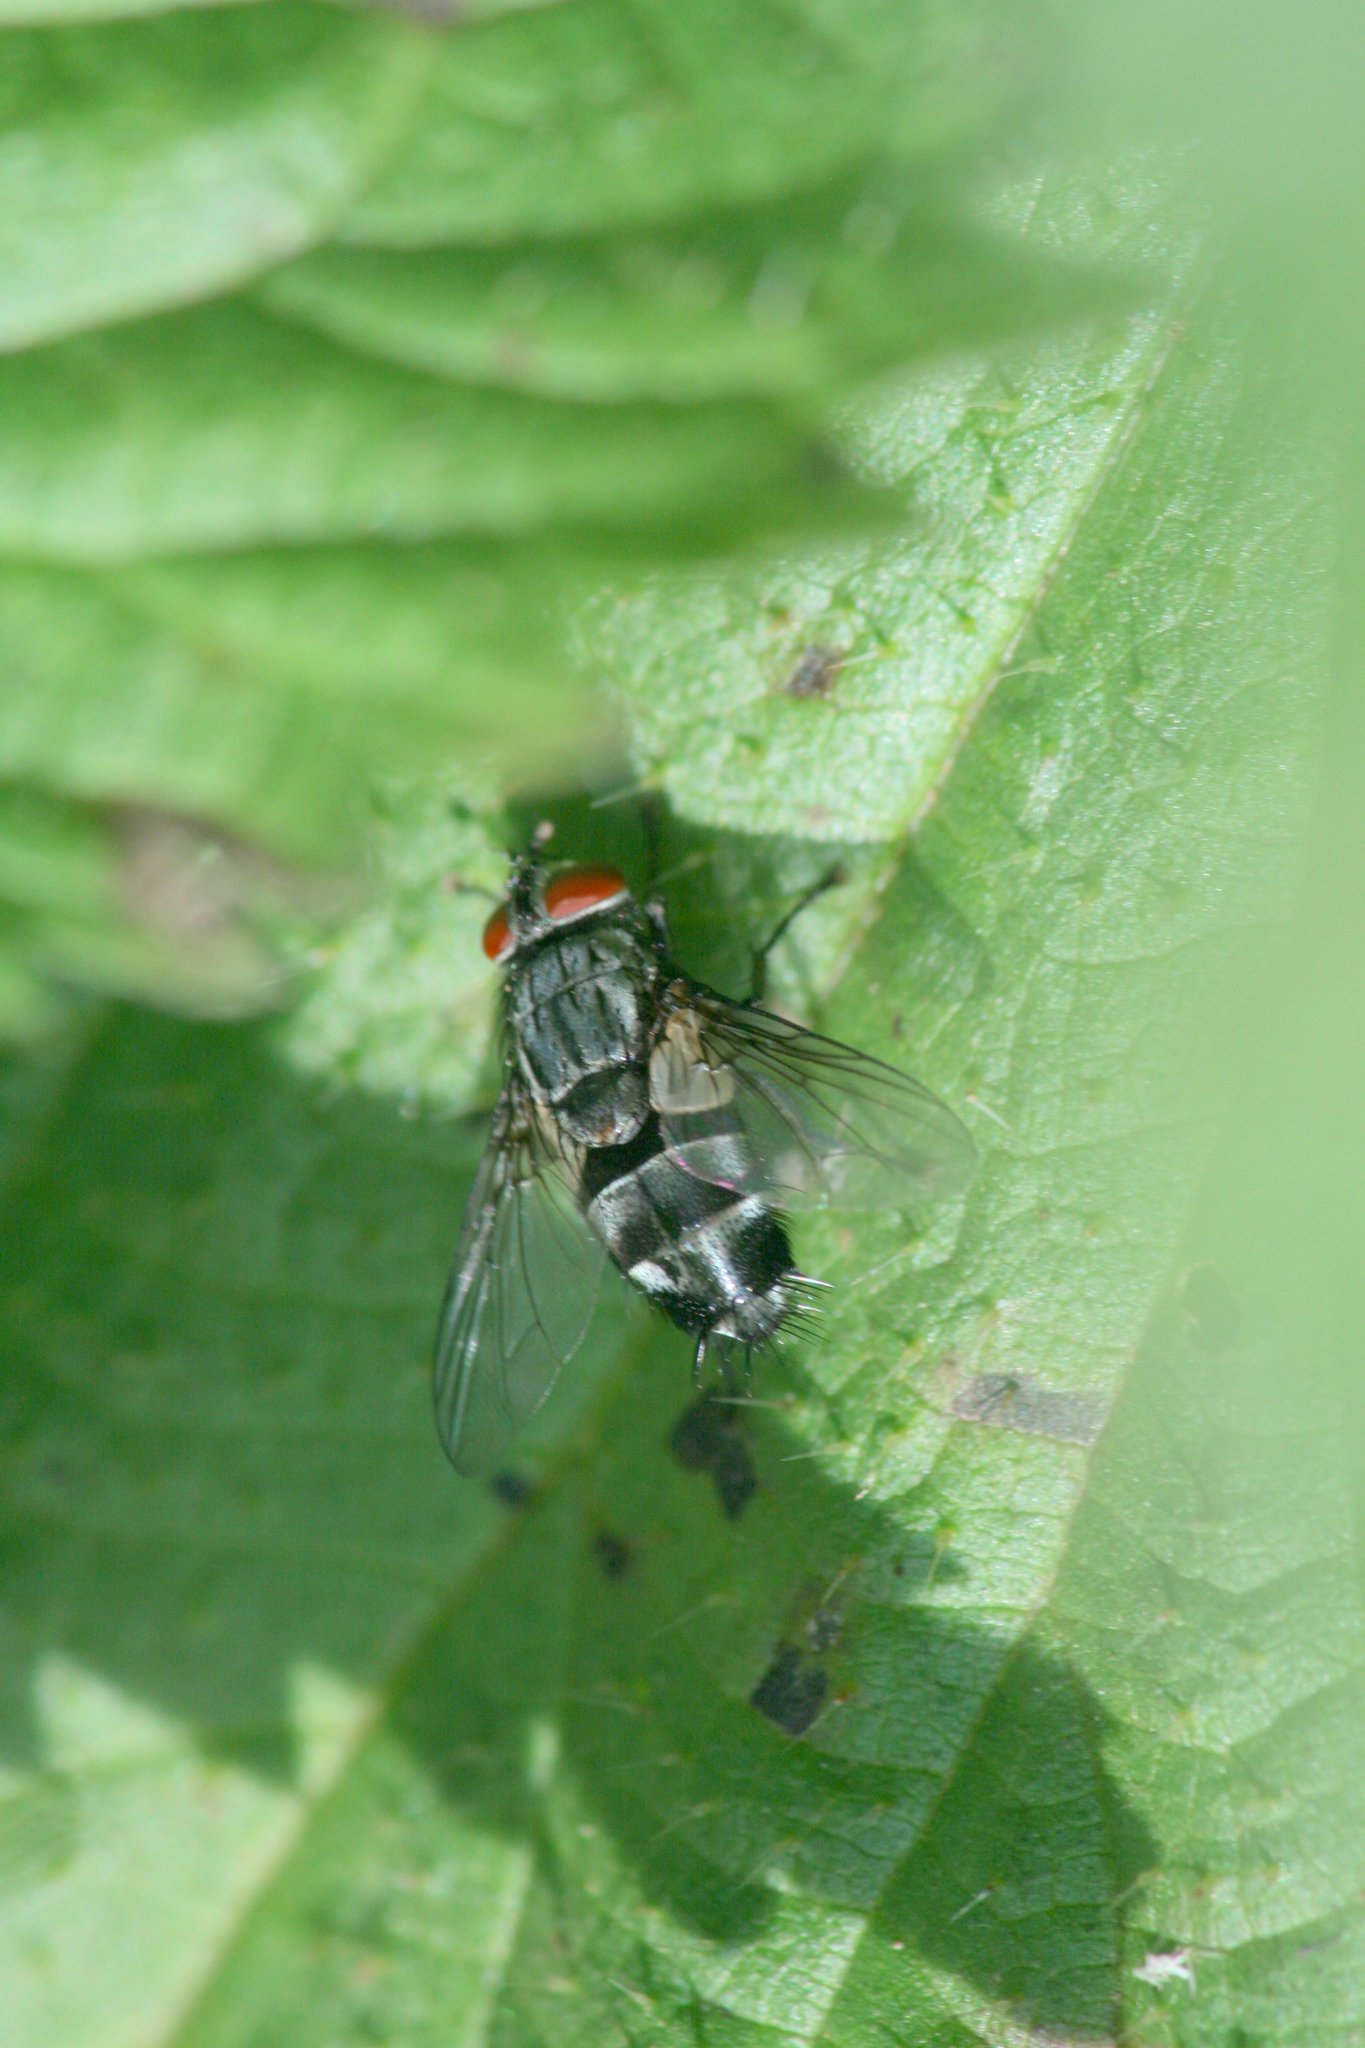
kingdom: Animalia
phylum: Arthropoda
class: Insecta
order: Diptera
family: Tachinidae
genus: Sturmia
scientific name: Sturmia bella
